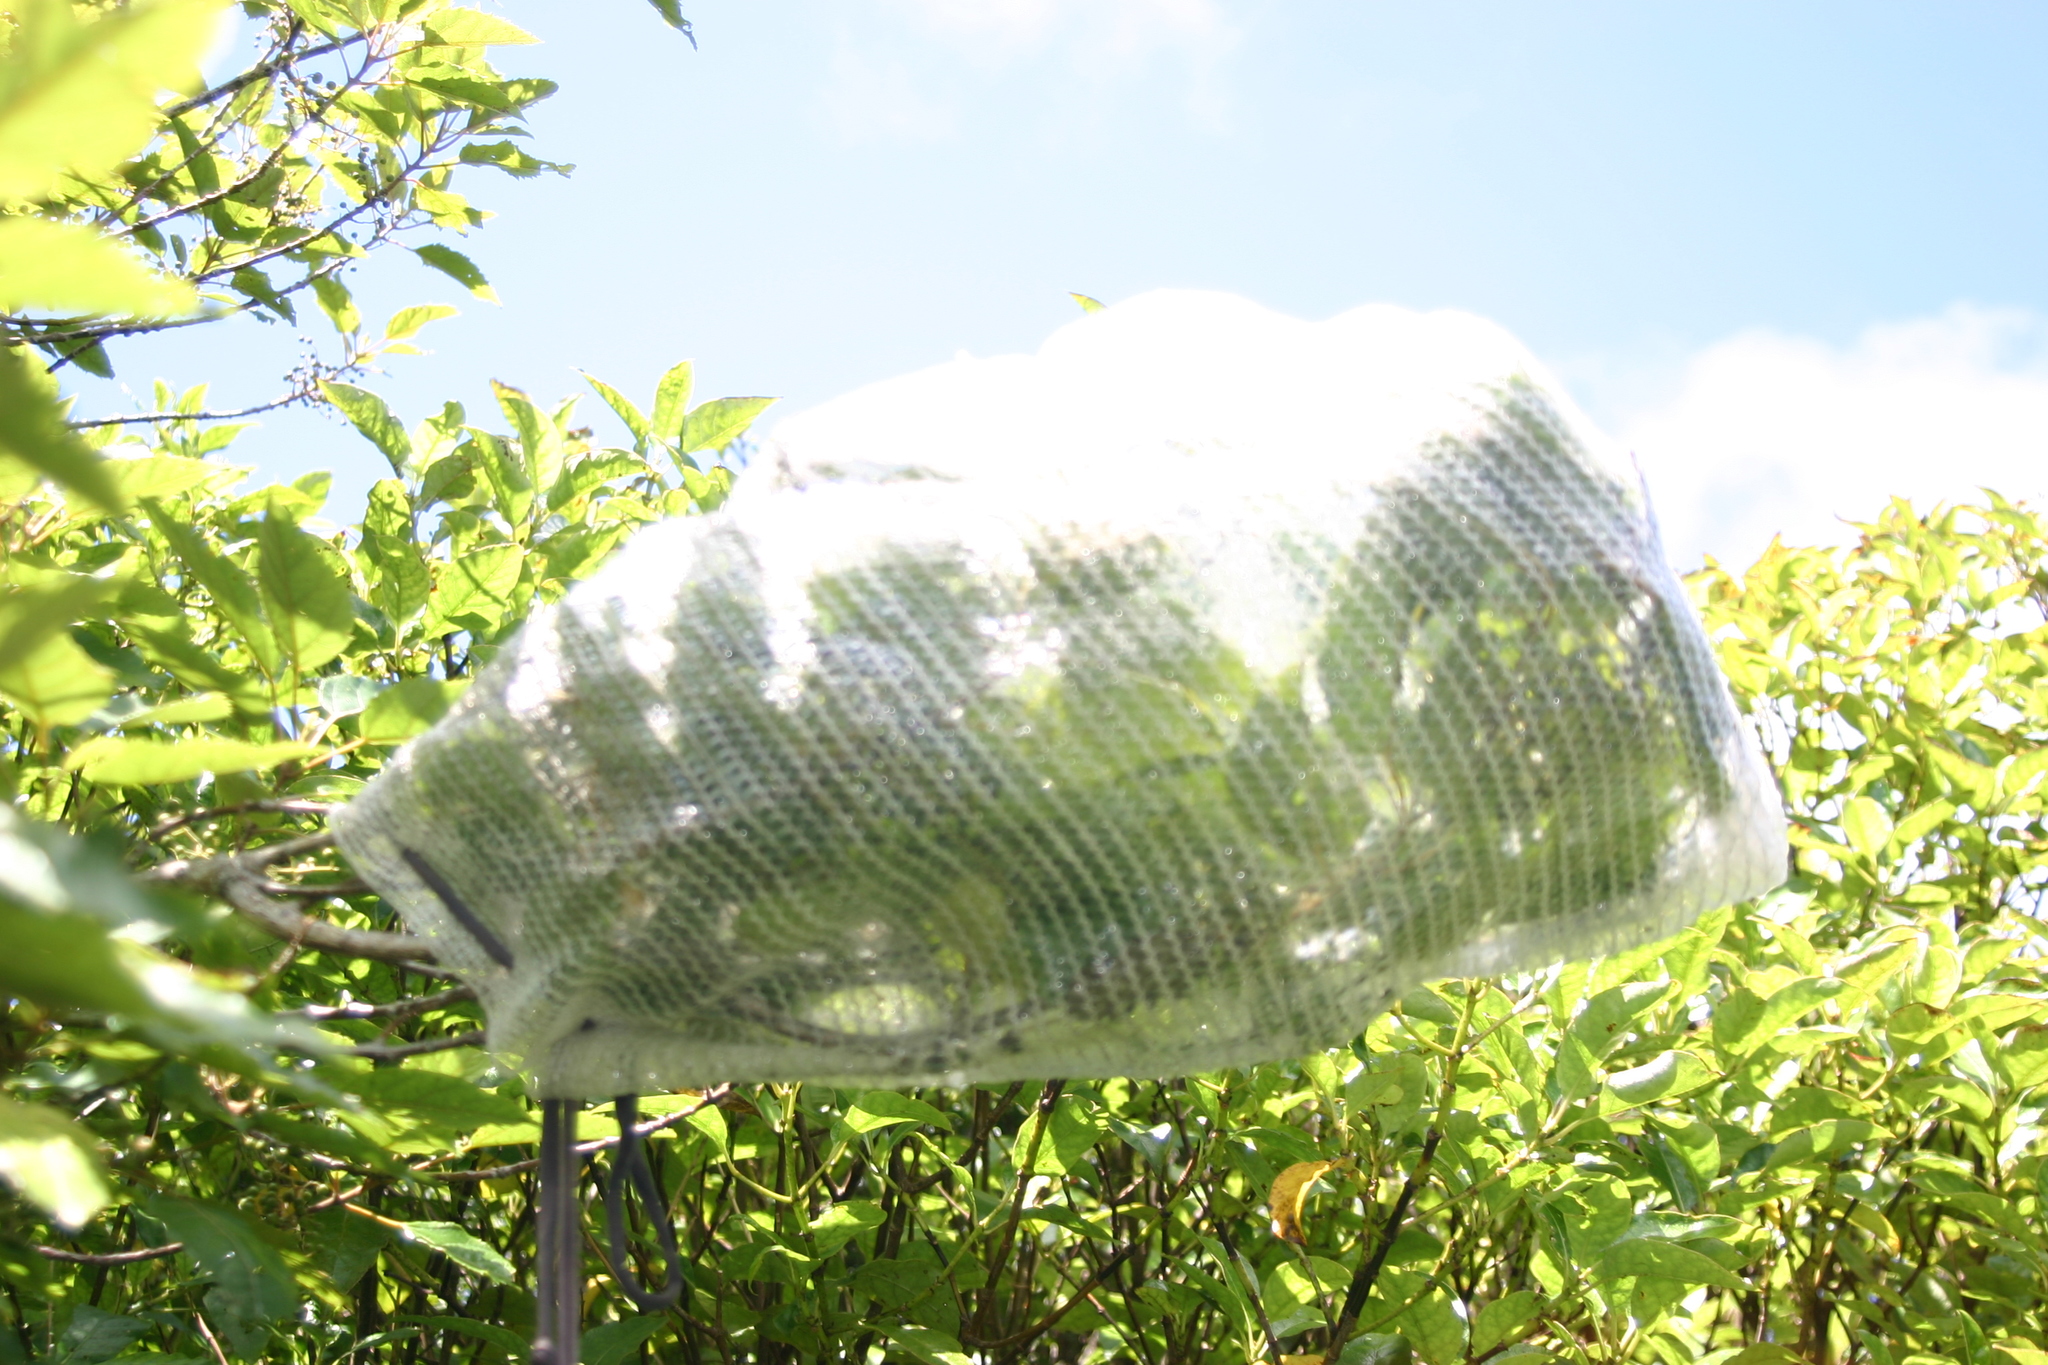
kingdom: Plantae
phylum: Tracheophyta
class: Magnoliopsida
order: Oxalidales
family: Elaeocarpaceae
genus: Aristotelia
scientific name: Aristotelia serrata
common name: New zealand wineberry
